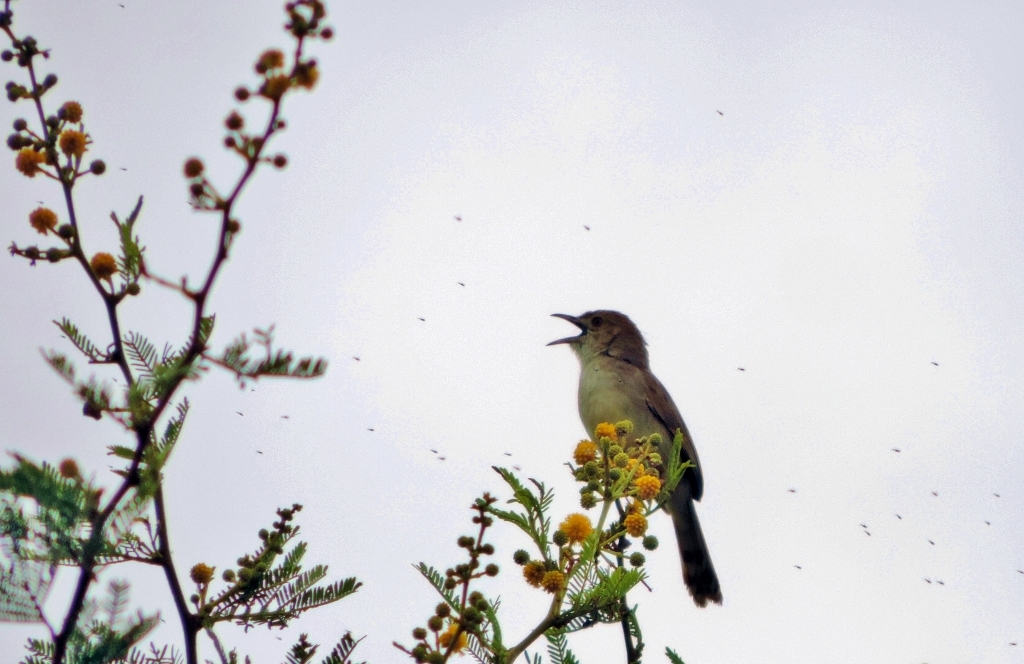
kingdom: Animalia
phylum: Chordata
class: Aves
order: Passeriformes
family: Cisticolidae
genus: Cisticola
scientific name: Cisticola chiniana
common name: Rattling cisticola
